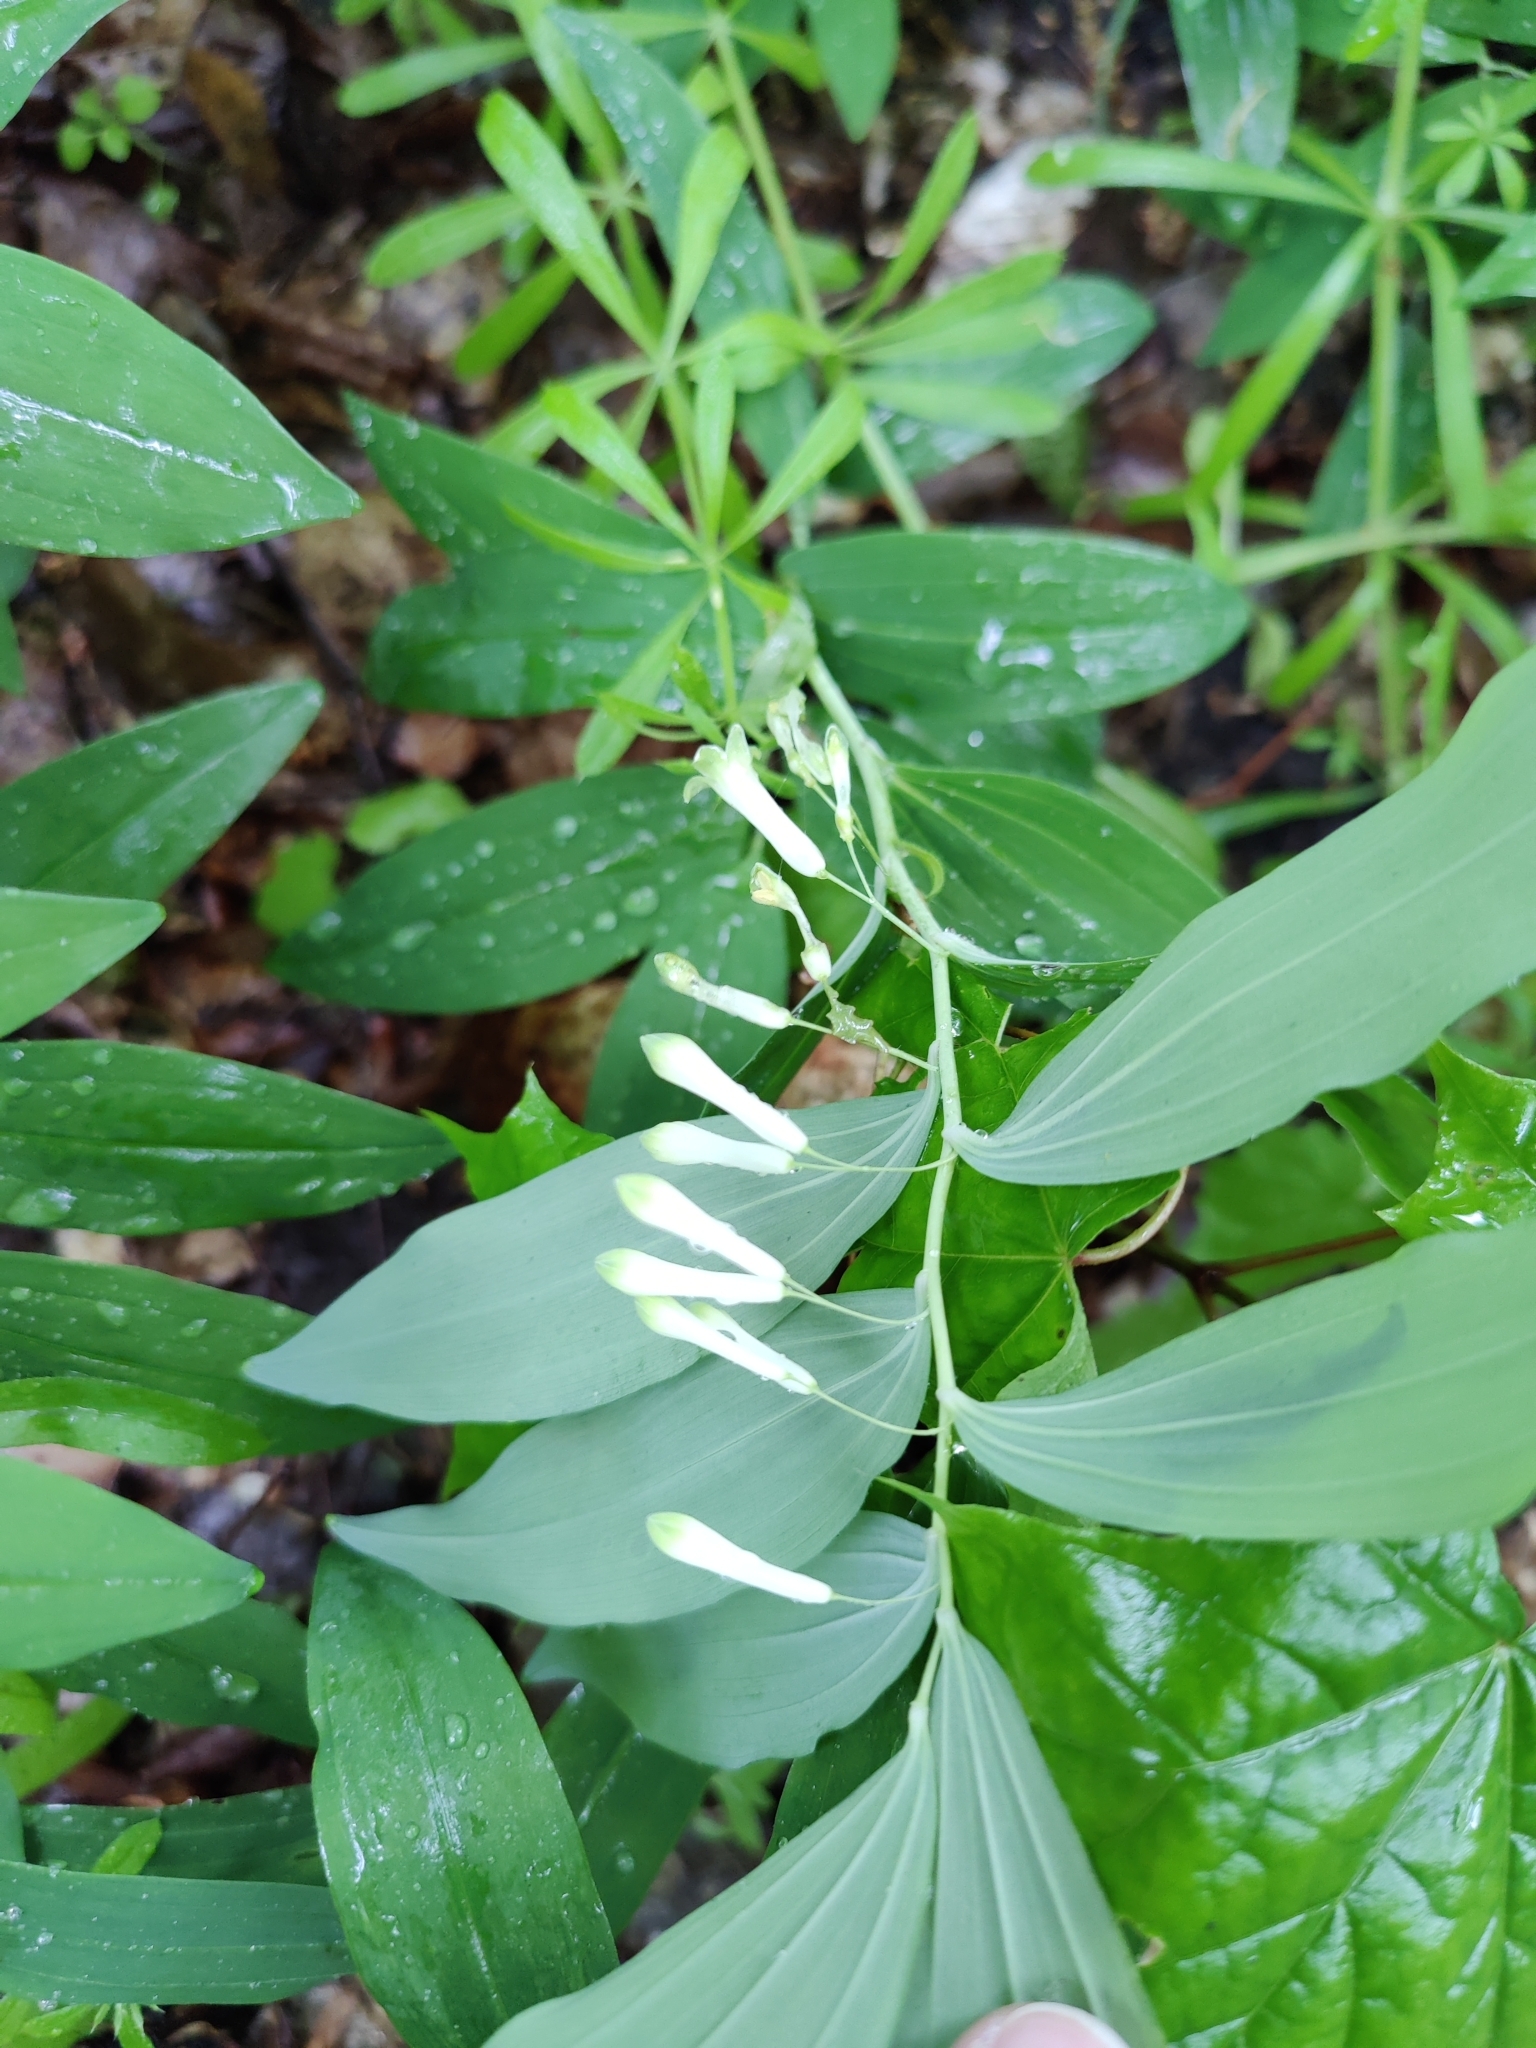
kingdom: Plantae
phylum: Tracheophyta
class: Liliopsida
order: Asparagales
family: Asparagaceae
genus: Polygonatum
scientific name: Polygonatum multiflorum
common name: Solomon's-seal
